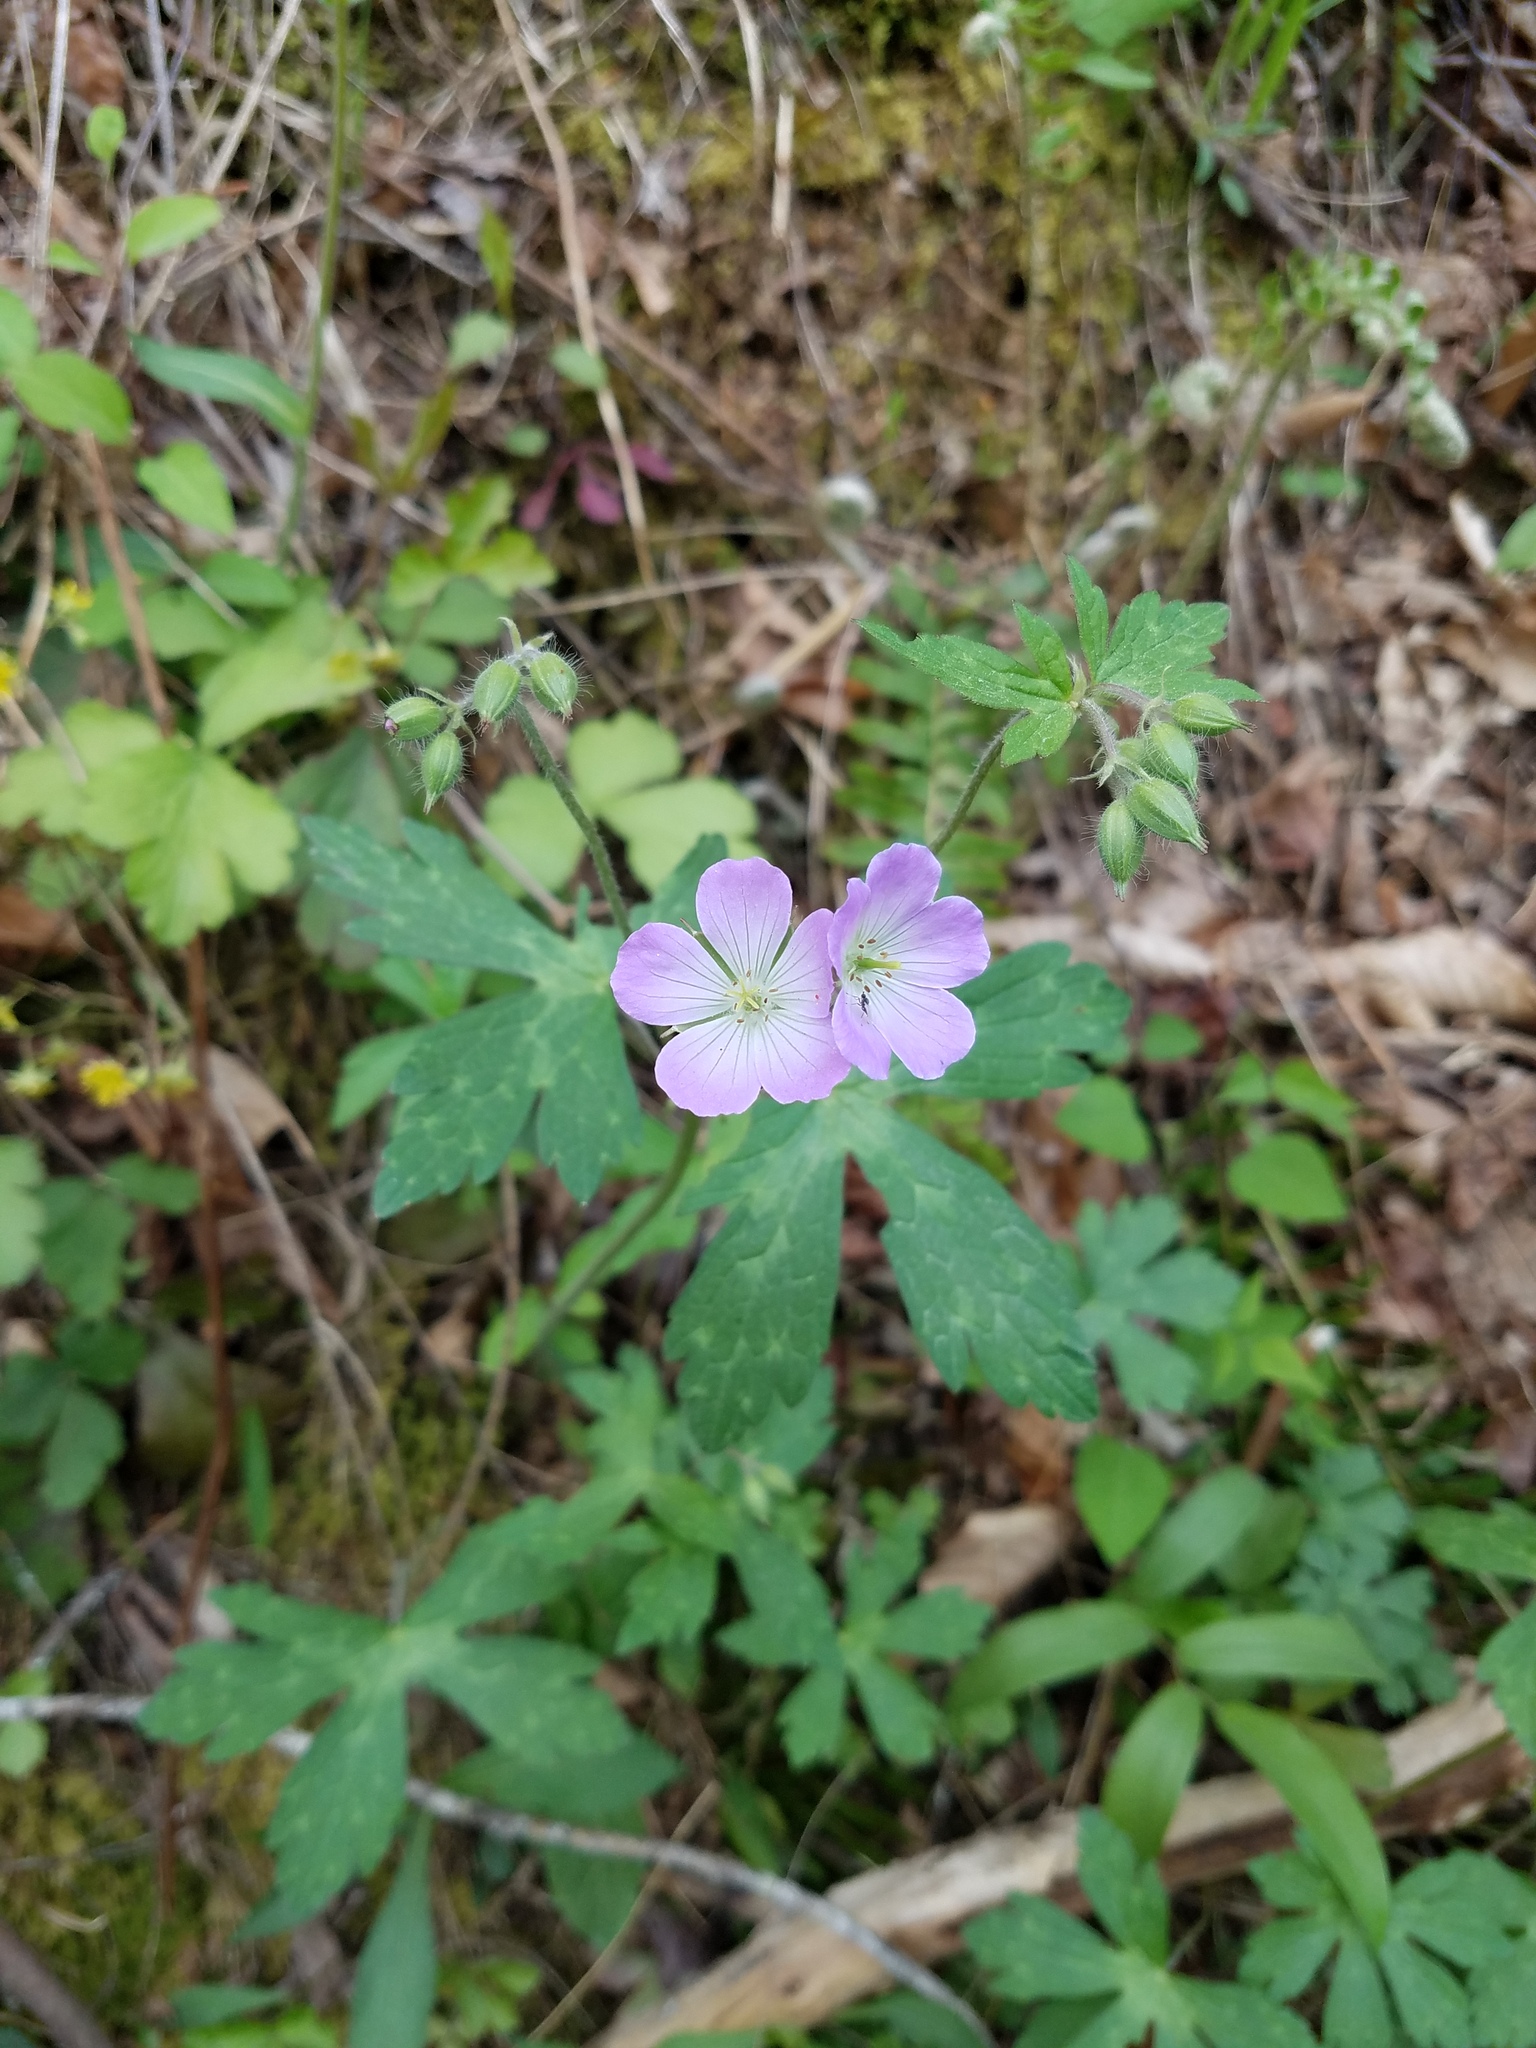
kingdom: Plantae
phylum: Tracheophyta
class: Magnoliopsida
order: Geraniales
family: Geraniaceae
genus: Geranium
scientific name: Geranium maculatum
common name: Spotted geranium
